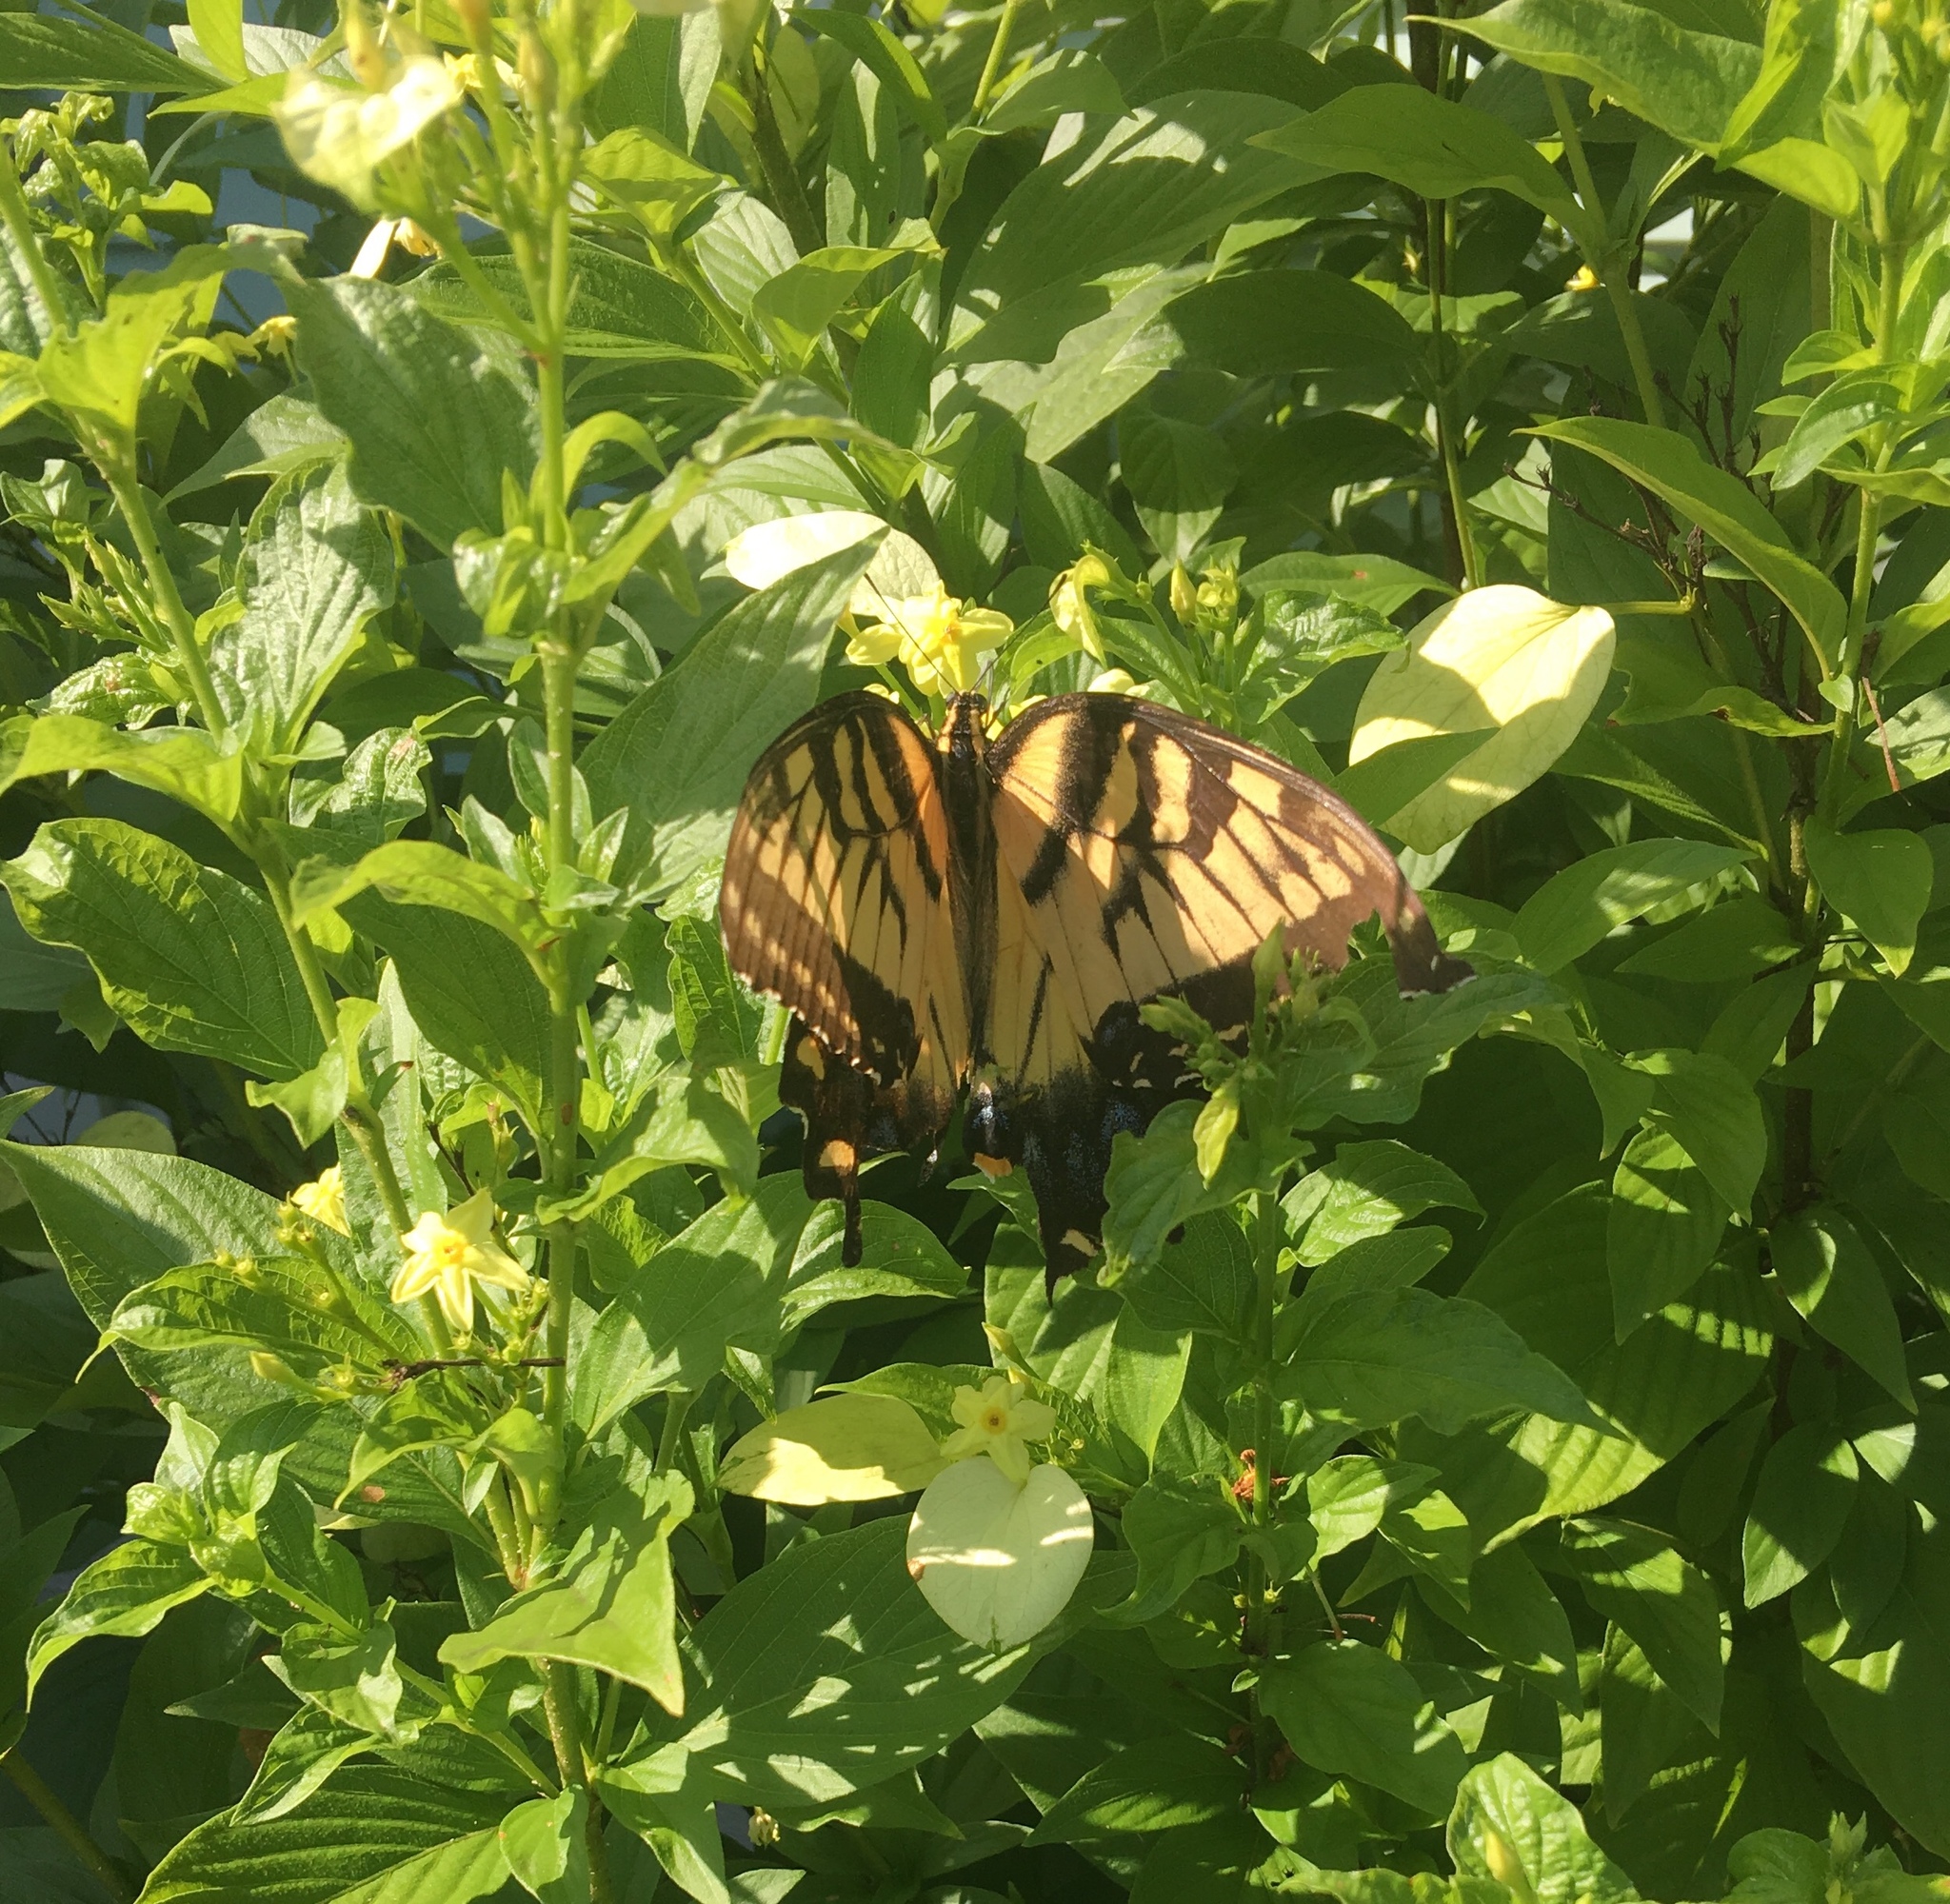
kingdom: Animalia
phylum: Arthropoda
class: Insecta
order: Lepidoptera
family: Papilionidae
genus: Papilio
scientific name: Papilio glaucus
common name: Tiger swallowtail
